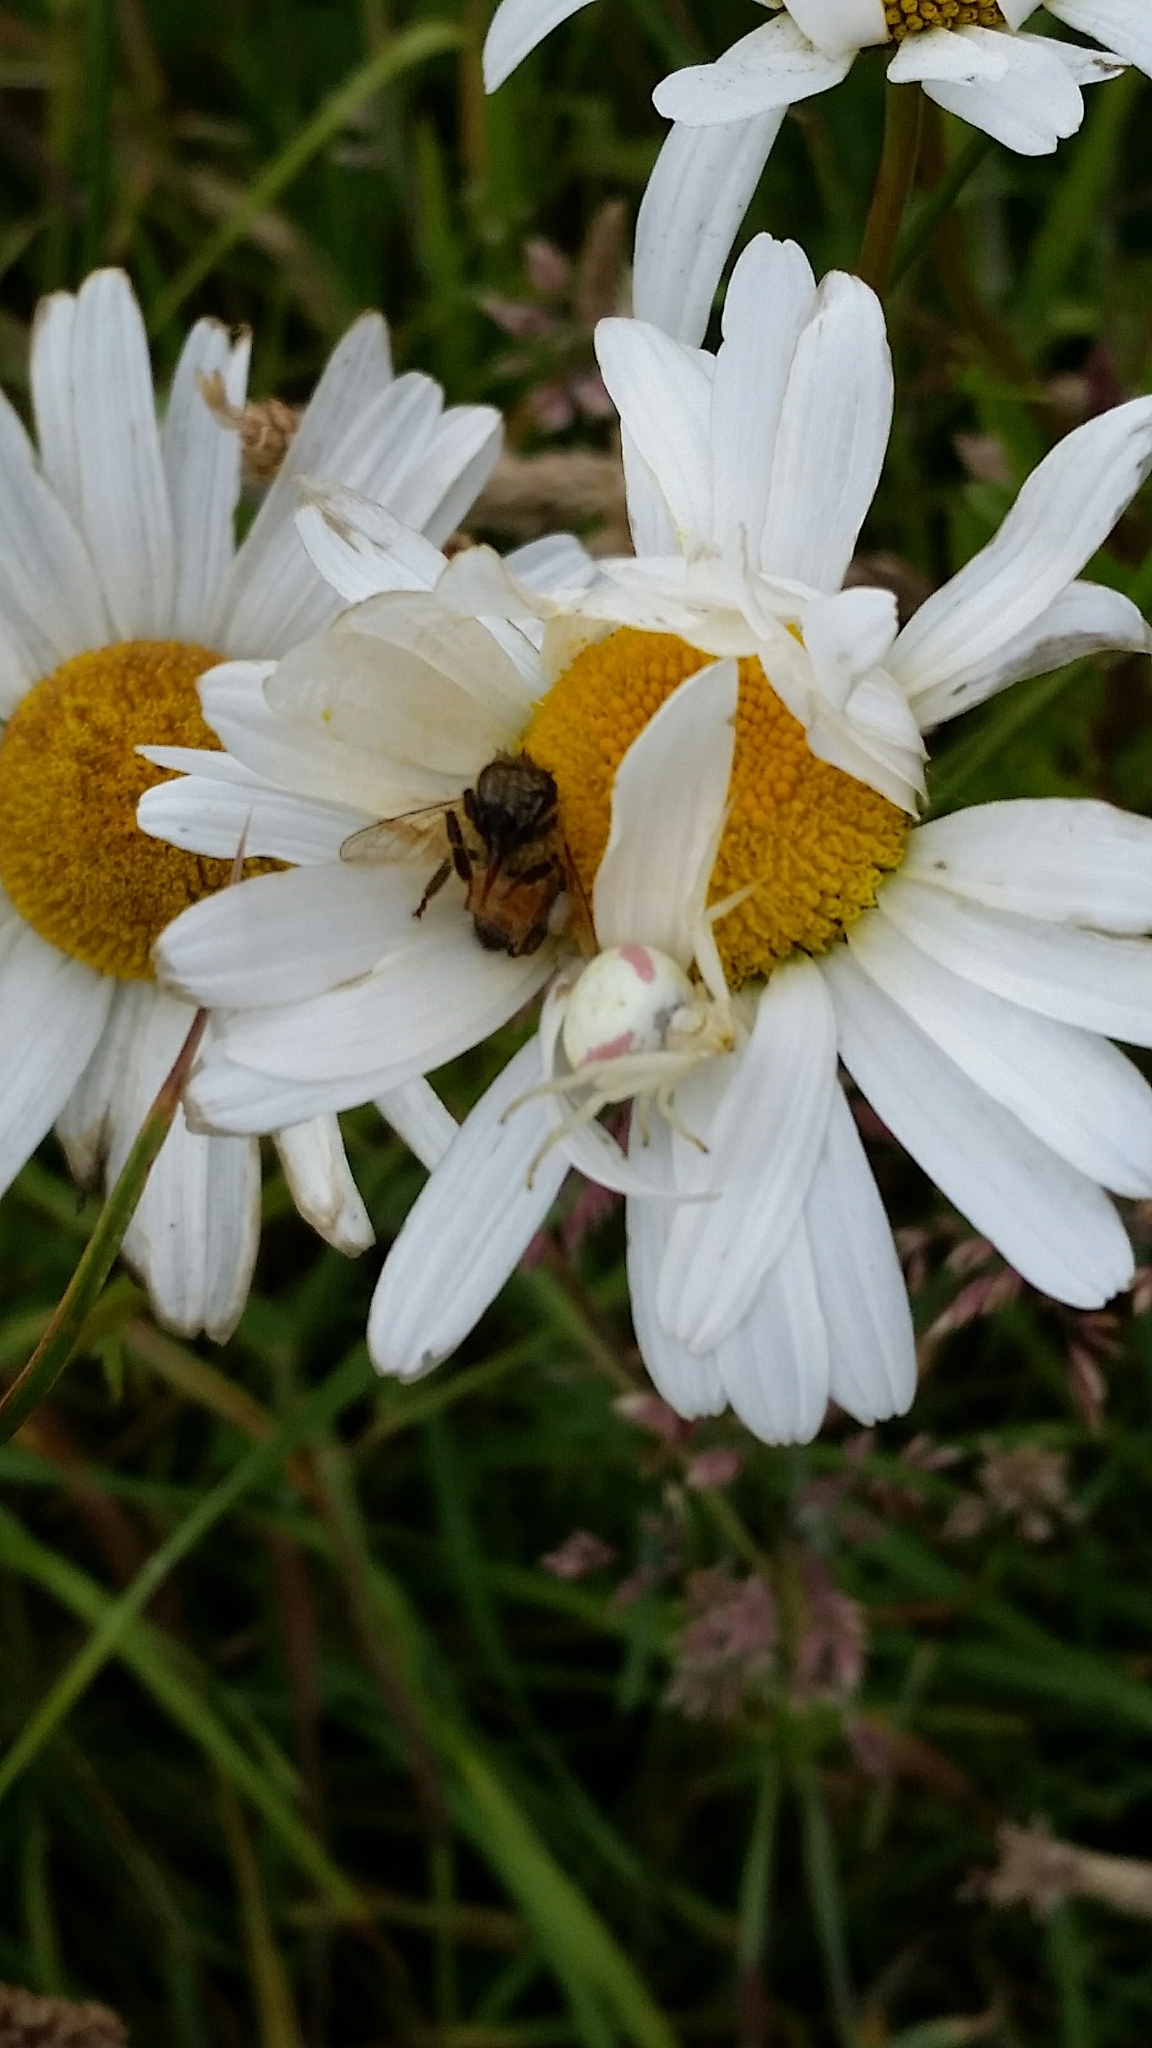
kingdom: Animalia
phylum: Arthropoda
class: Arachnida
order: Araneae
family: Thomisidae
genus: Misumena
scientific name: Misumena vatia
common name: Goldenrod crab spider
